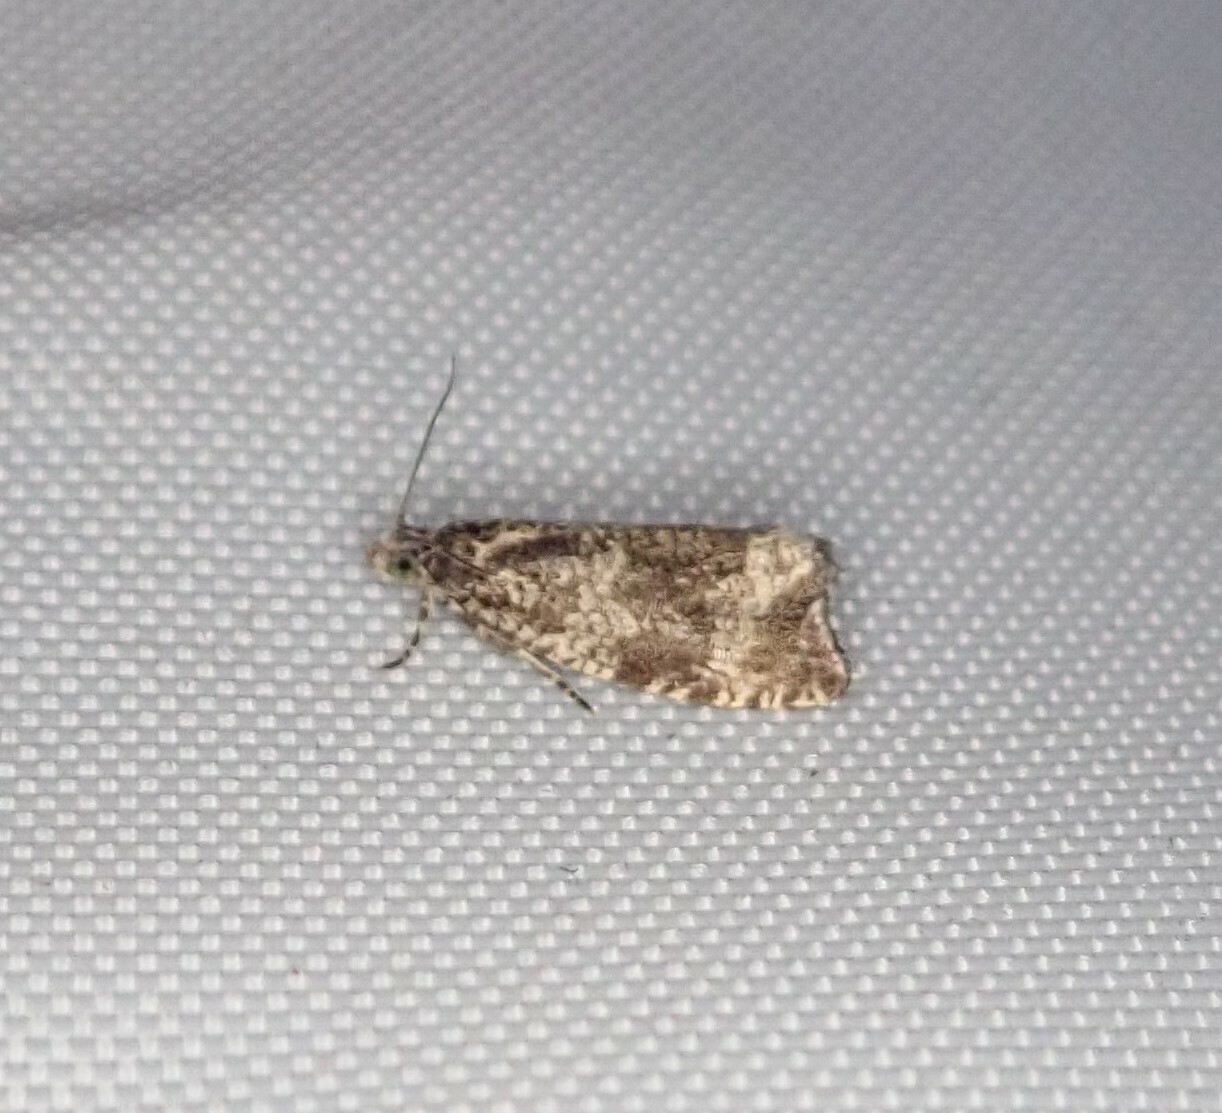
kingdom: Animalia
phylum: Arthropoda
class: Insecta
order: Lepidoptera
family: Tortricidae
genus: Syricoris
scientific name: Syricoris lacunana
